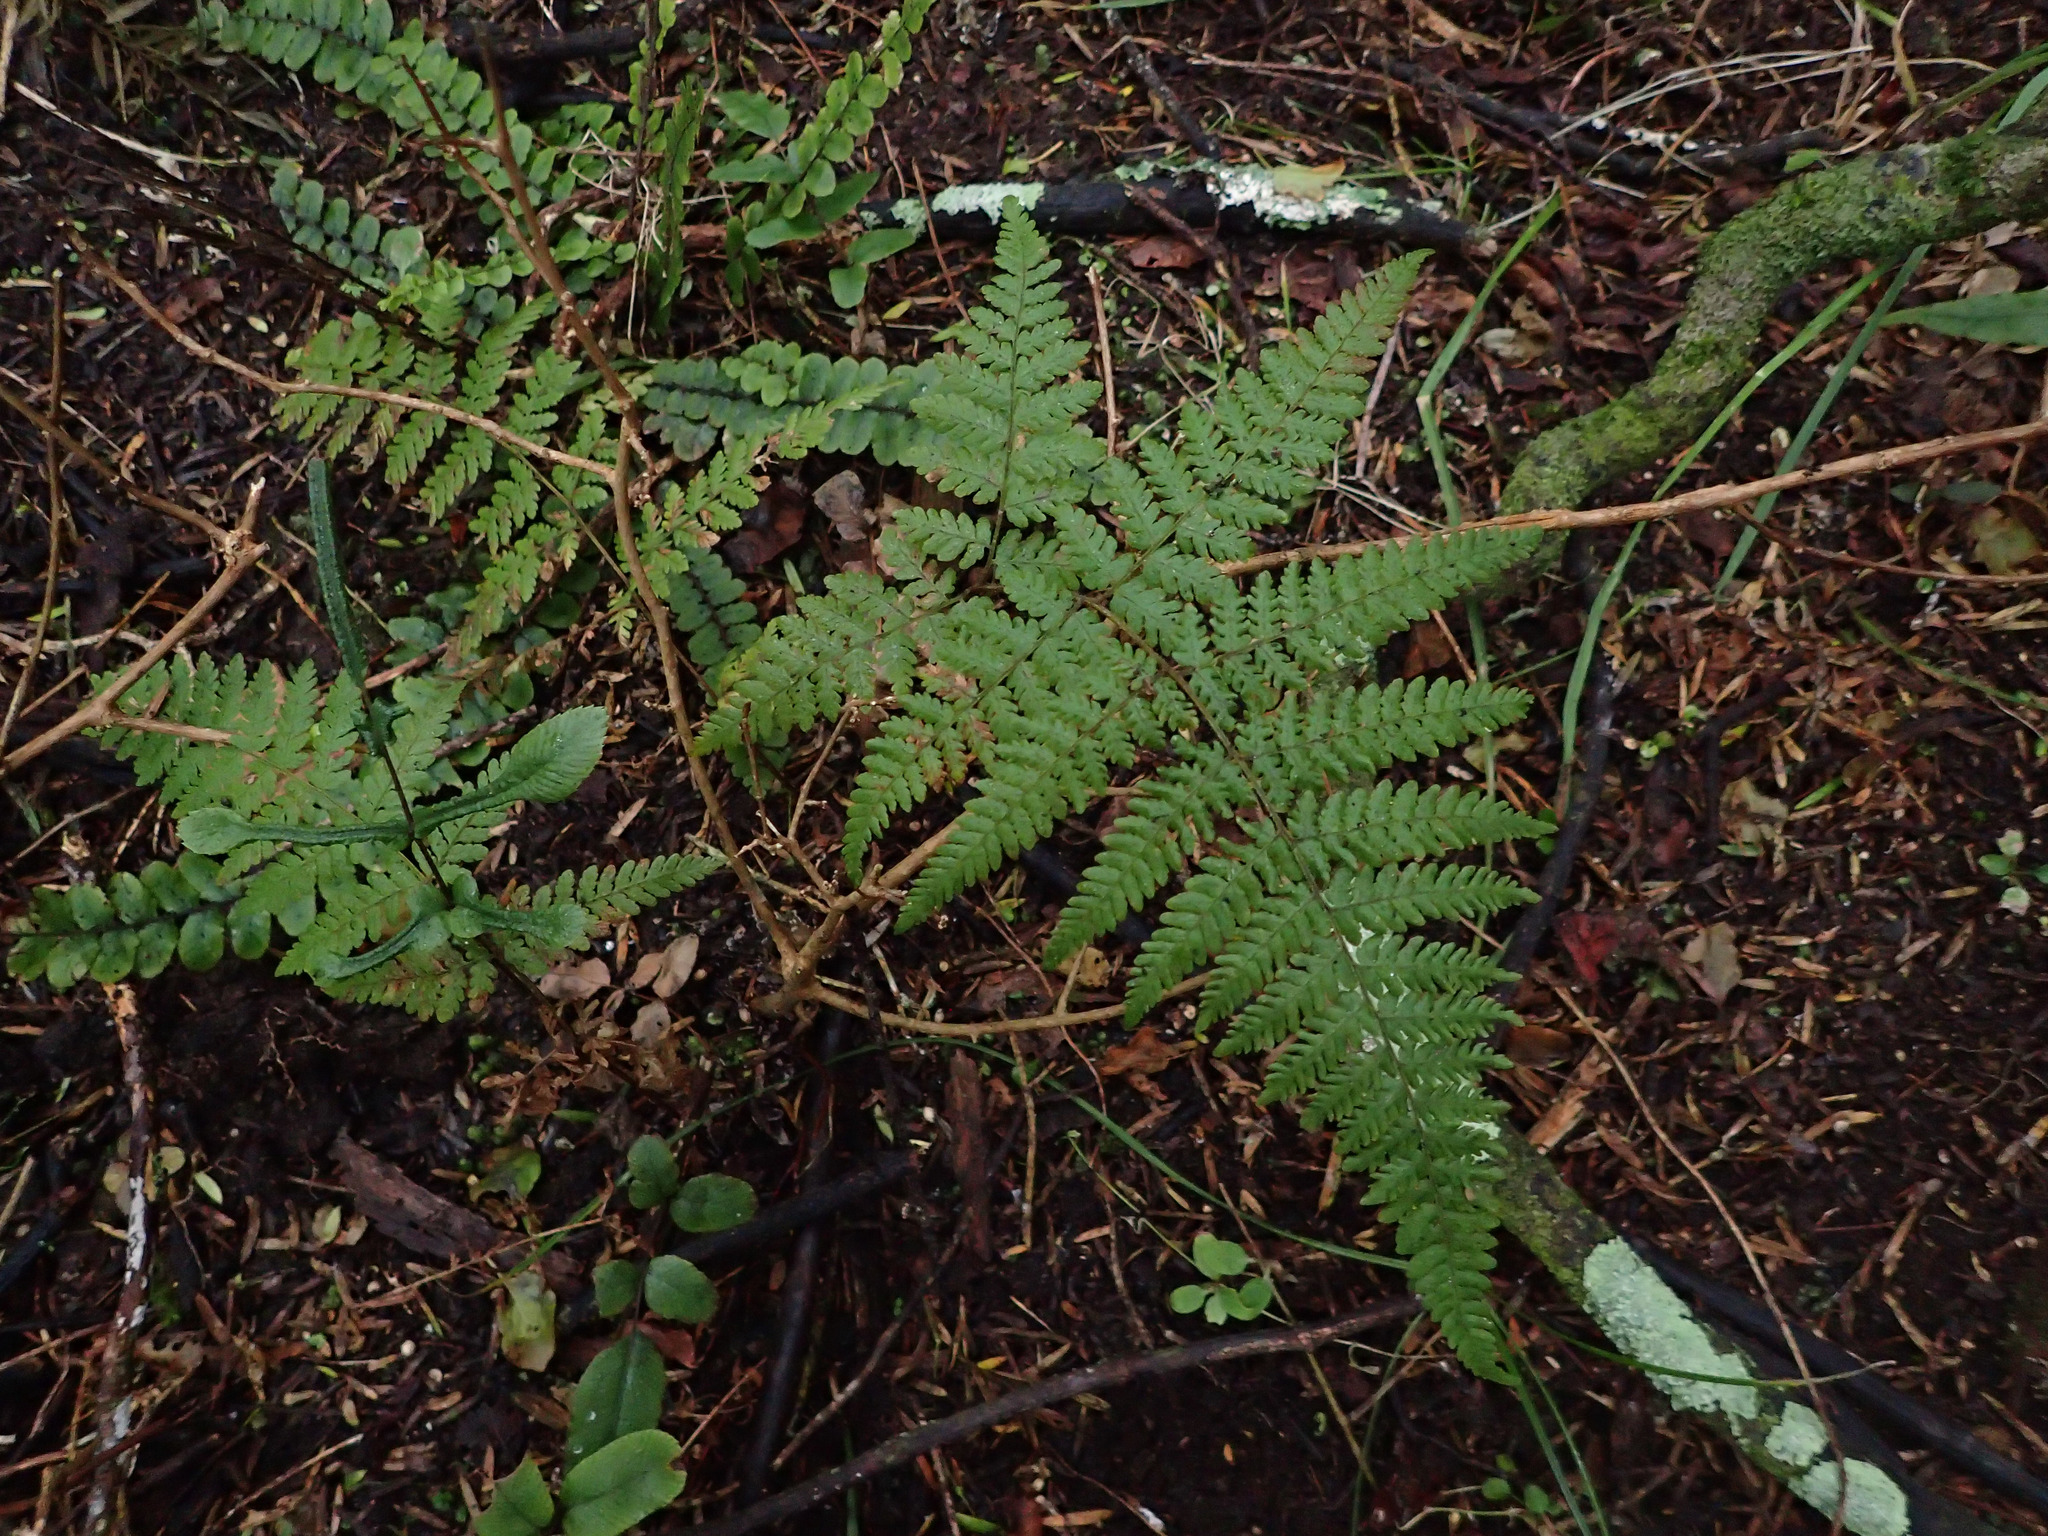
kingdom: Plantae
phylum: Tracheophyta
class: Polypodiopsida
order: Polypodiales
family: Dennstaedtiaceae
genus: Hypolepis
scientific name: Hypolepis ambigua
